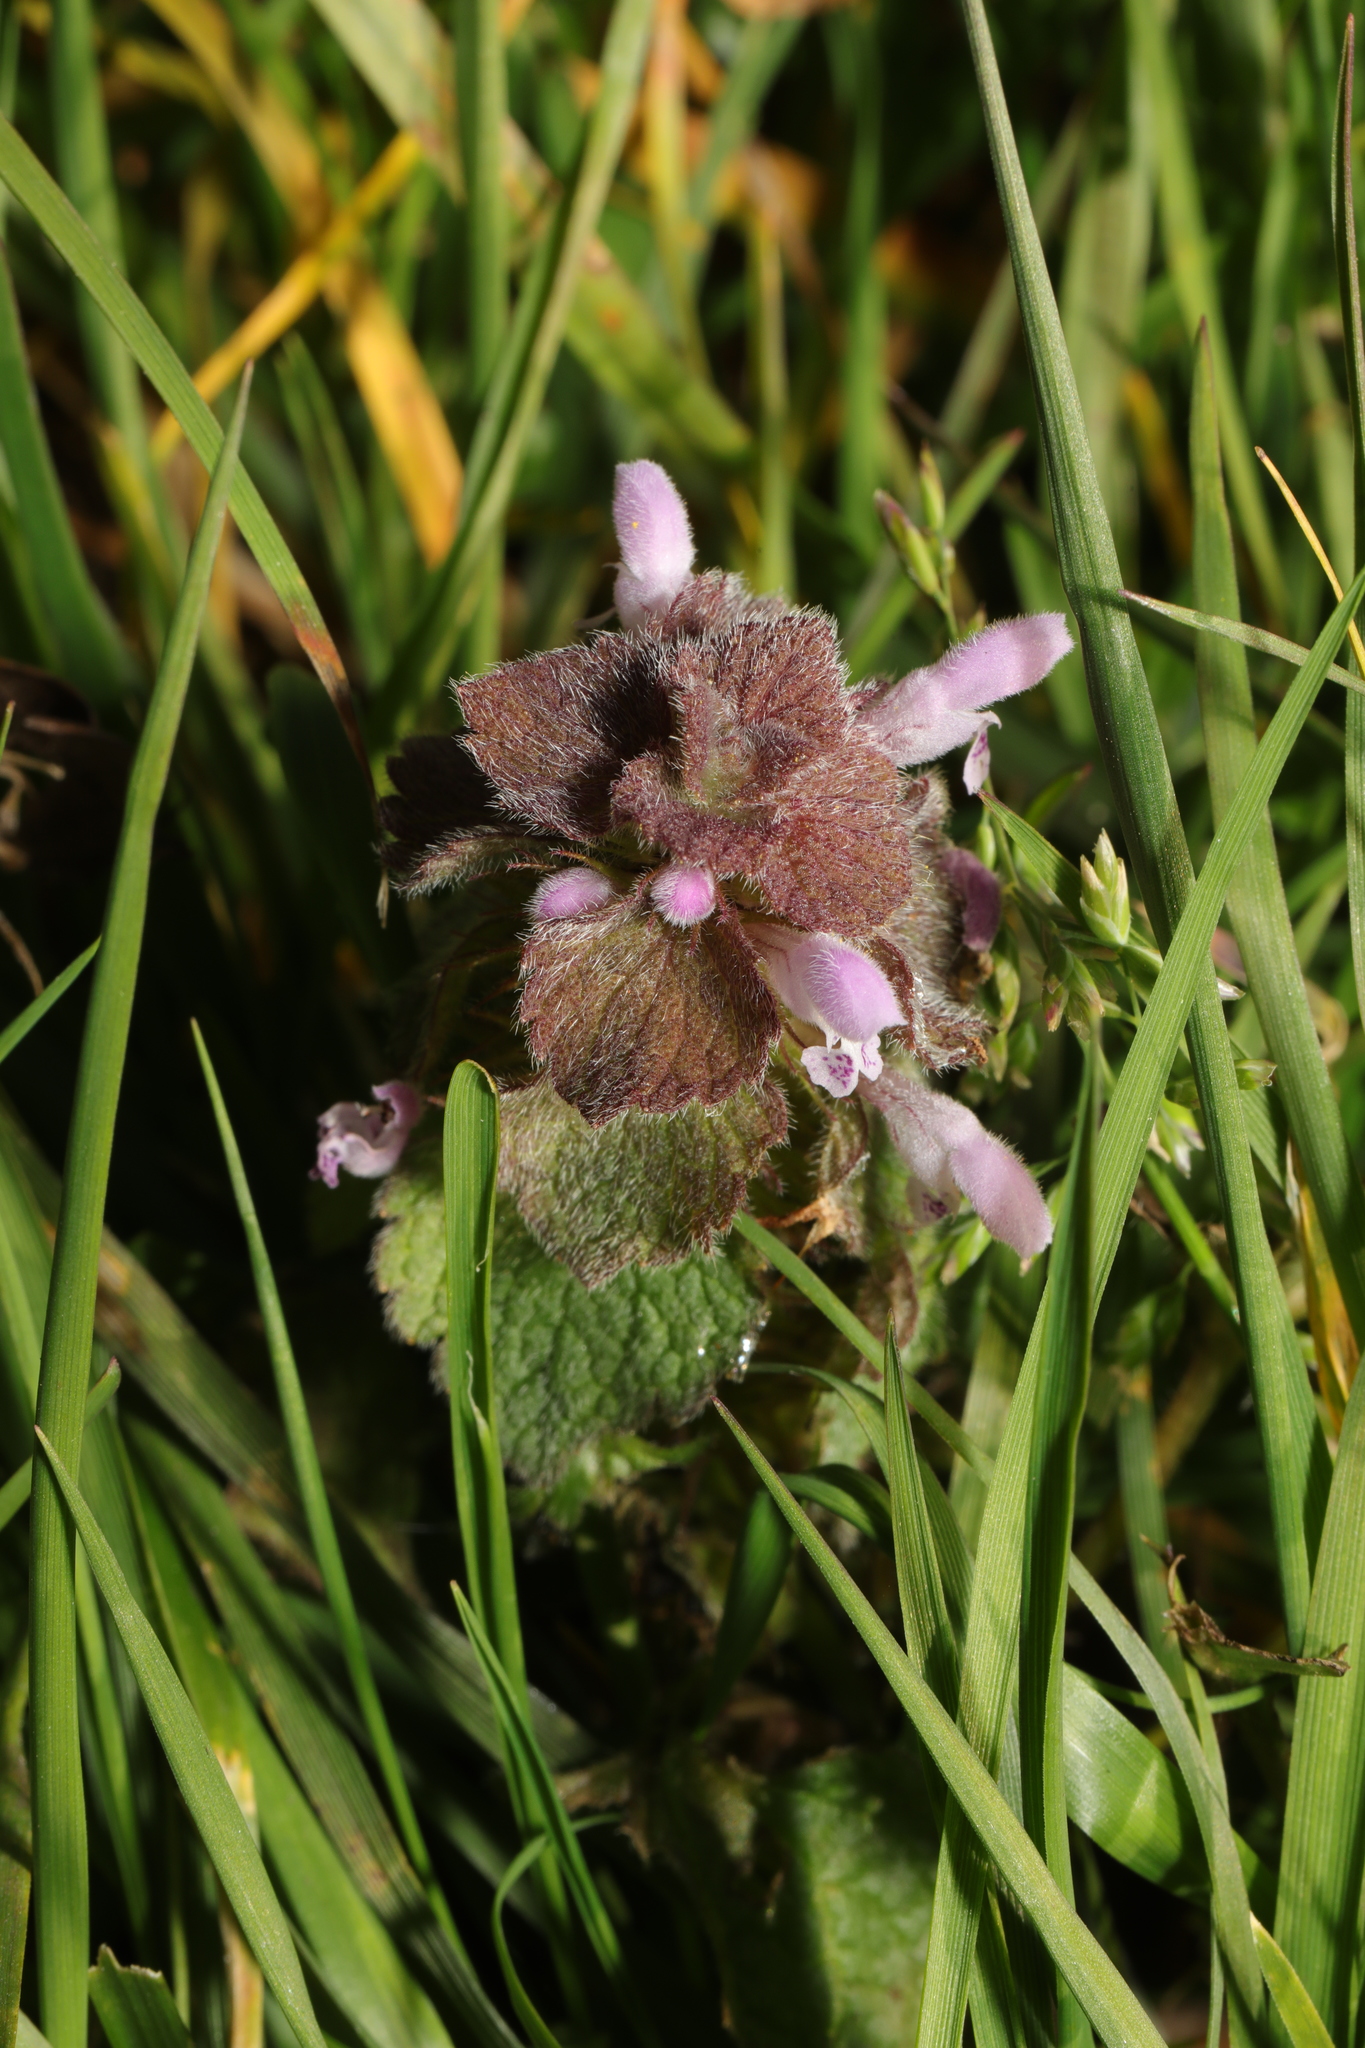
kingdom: Plantae
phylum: Tracheophyta
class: Magnoliopsida
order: Lamiales
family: Lamiaceae
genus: Lamium
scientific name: Lamium purpureum
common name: Red dead-nettle
